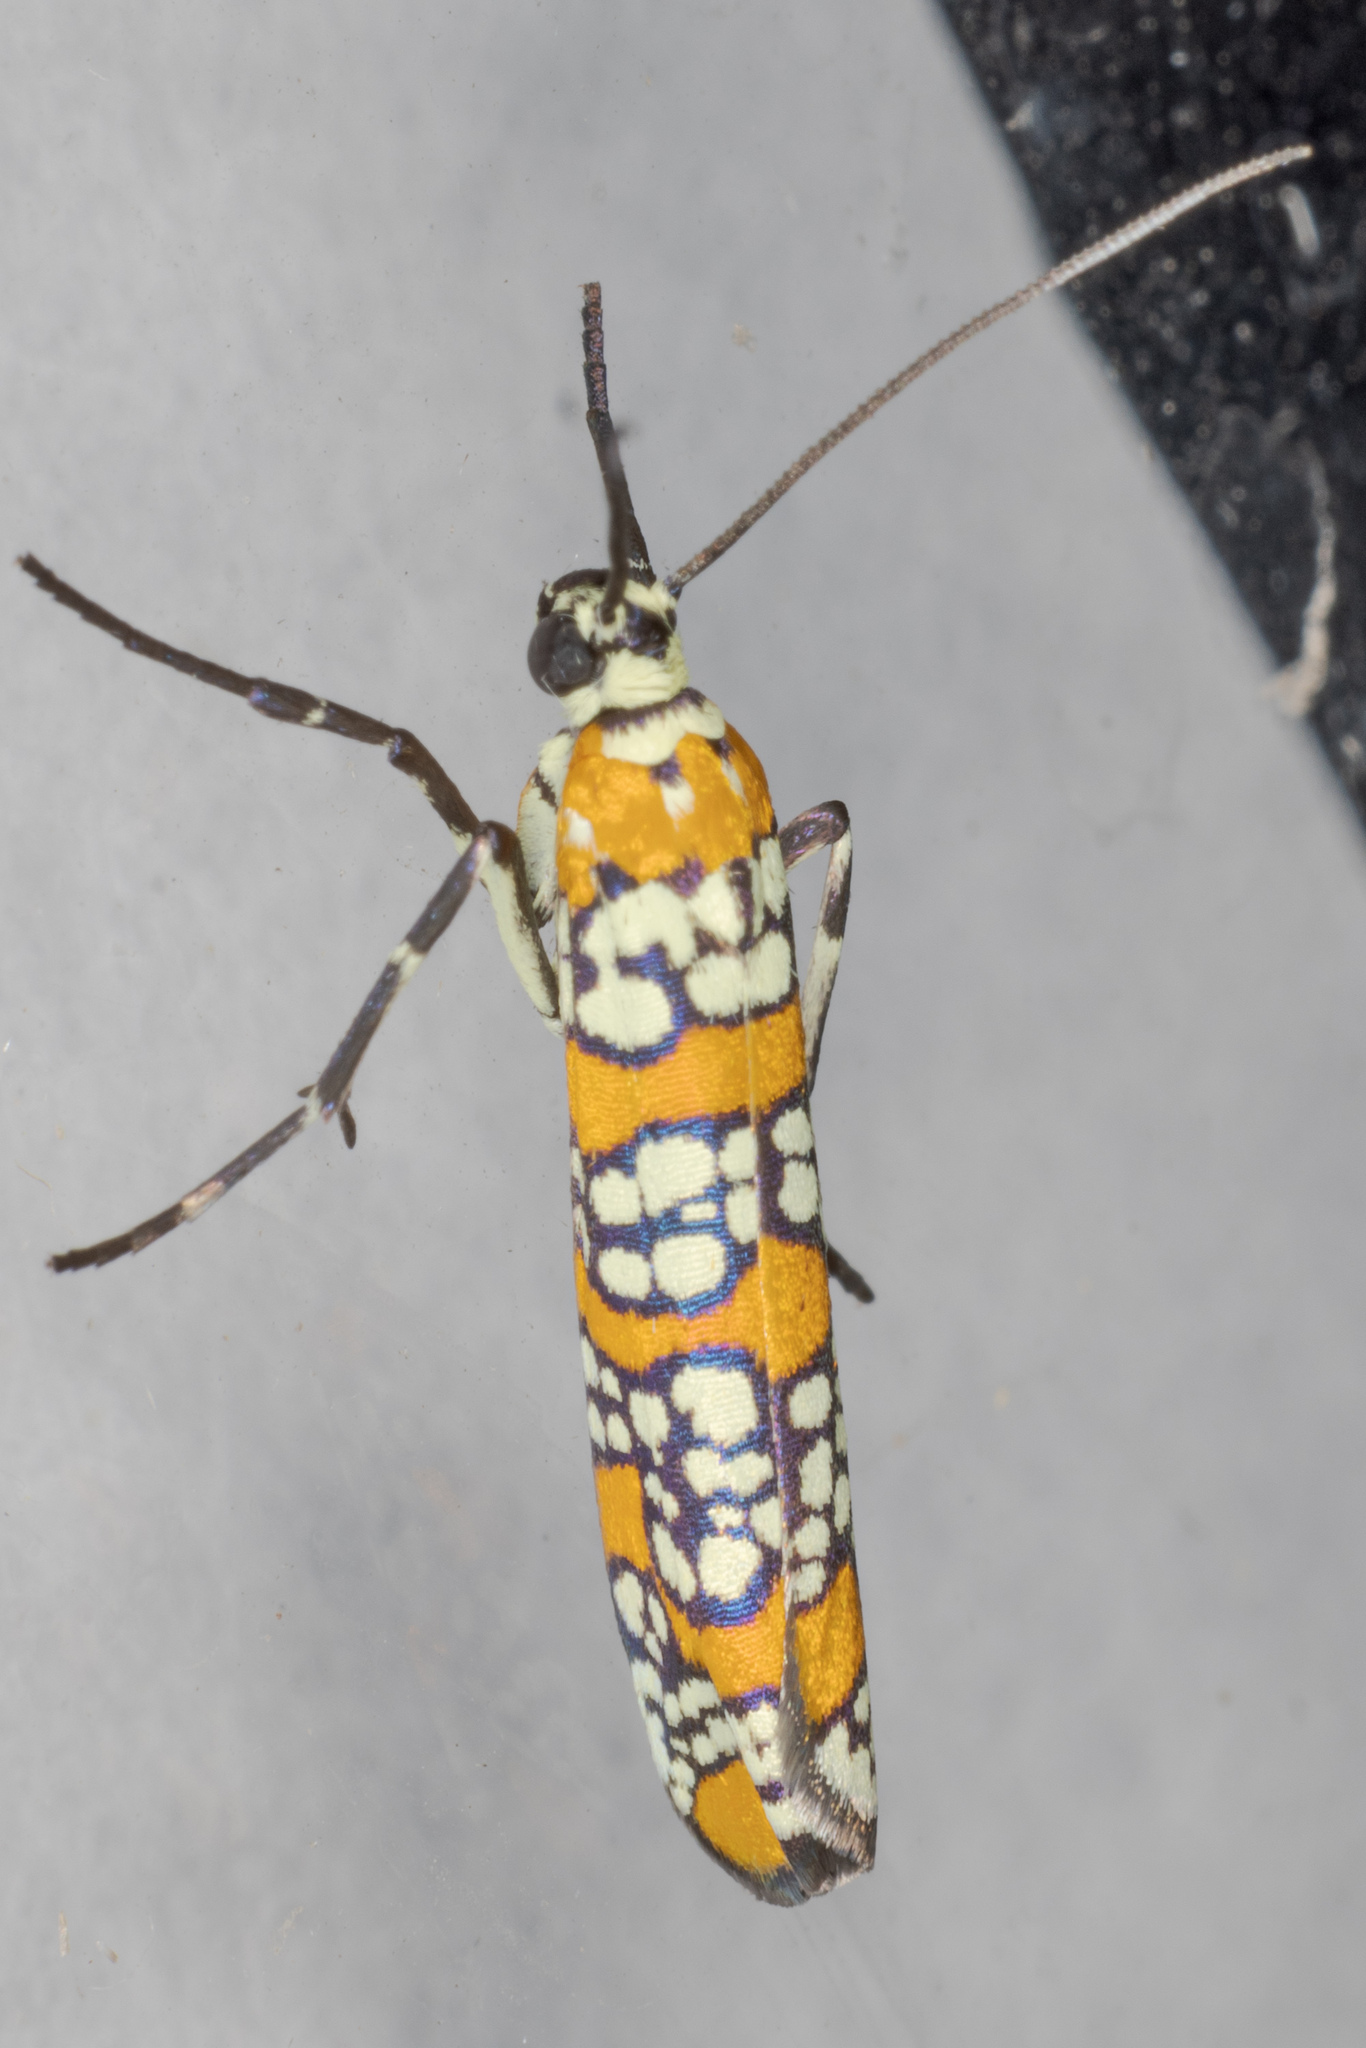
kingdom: Animalia
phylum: Arthropoda
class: Insecta
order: Lepidoptera
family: Attevidae
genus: Atteva
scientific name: Atteva punctella
